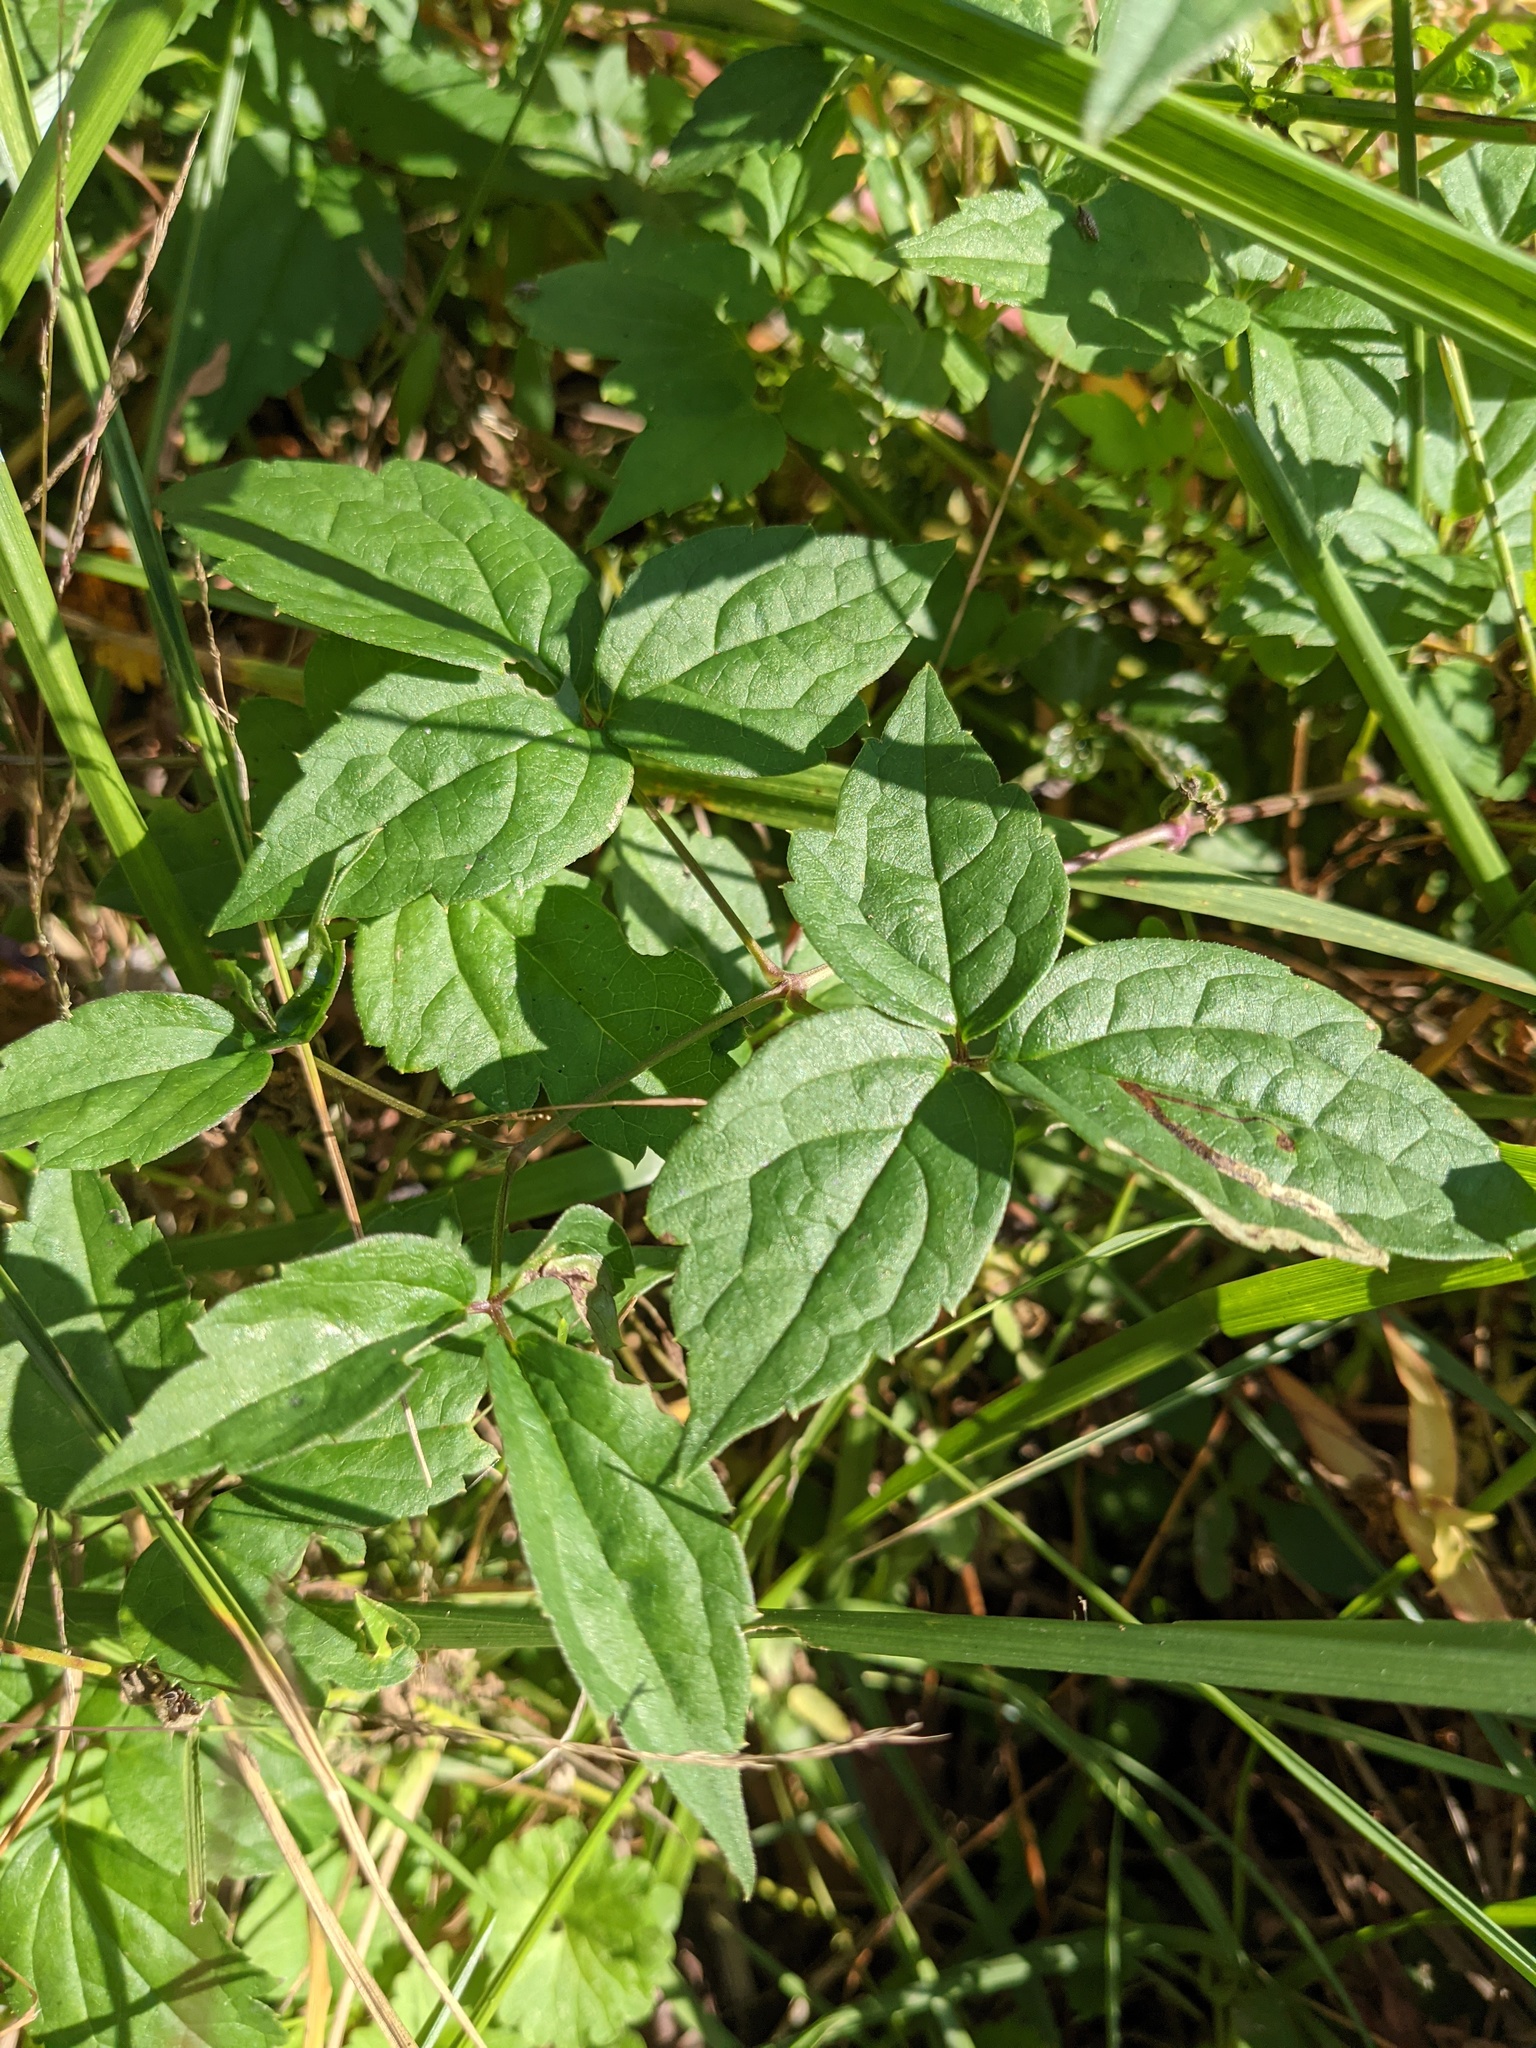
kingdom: Plantae
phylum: Tracheophyta
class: Magnoliopsida
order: Ranunculales
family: Ranunculaceae
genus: Clematis
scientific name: Clematis virginiana
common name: Virgin's-bower
